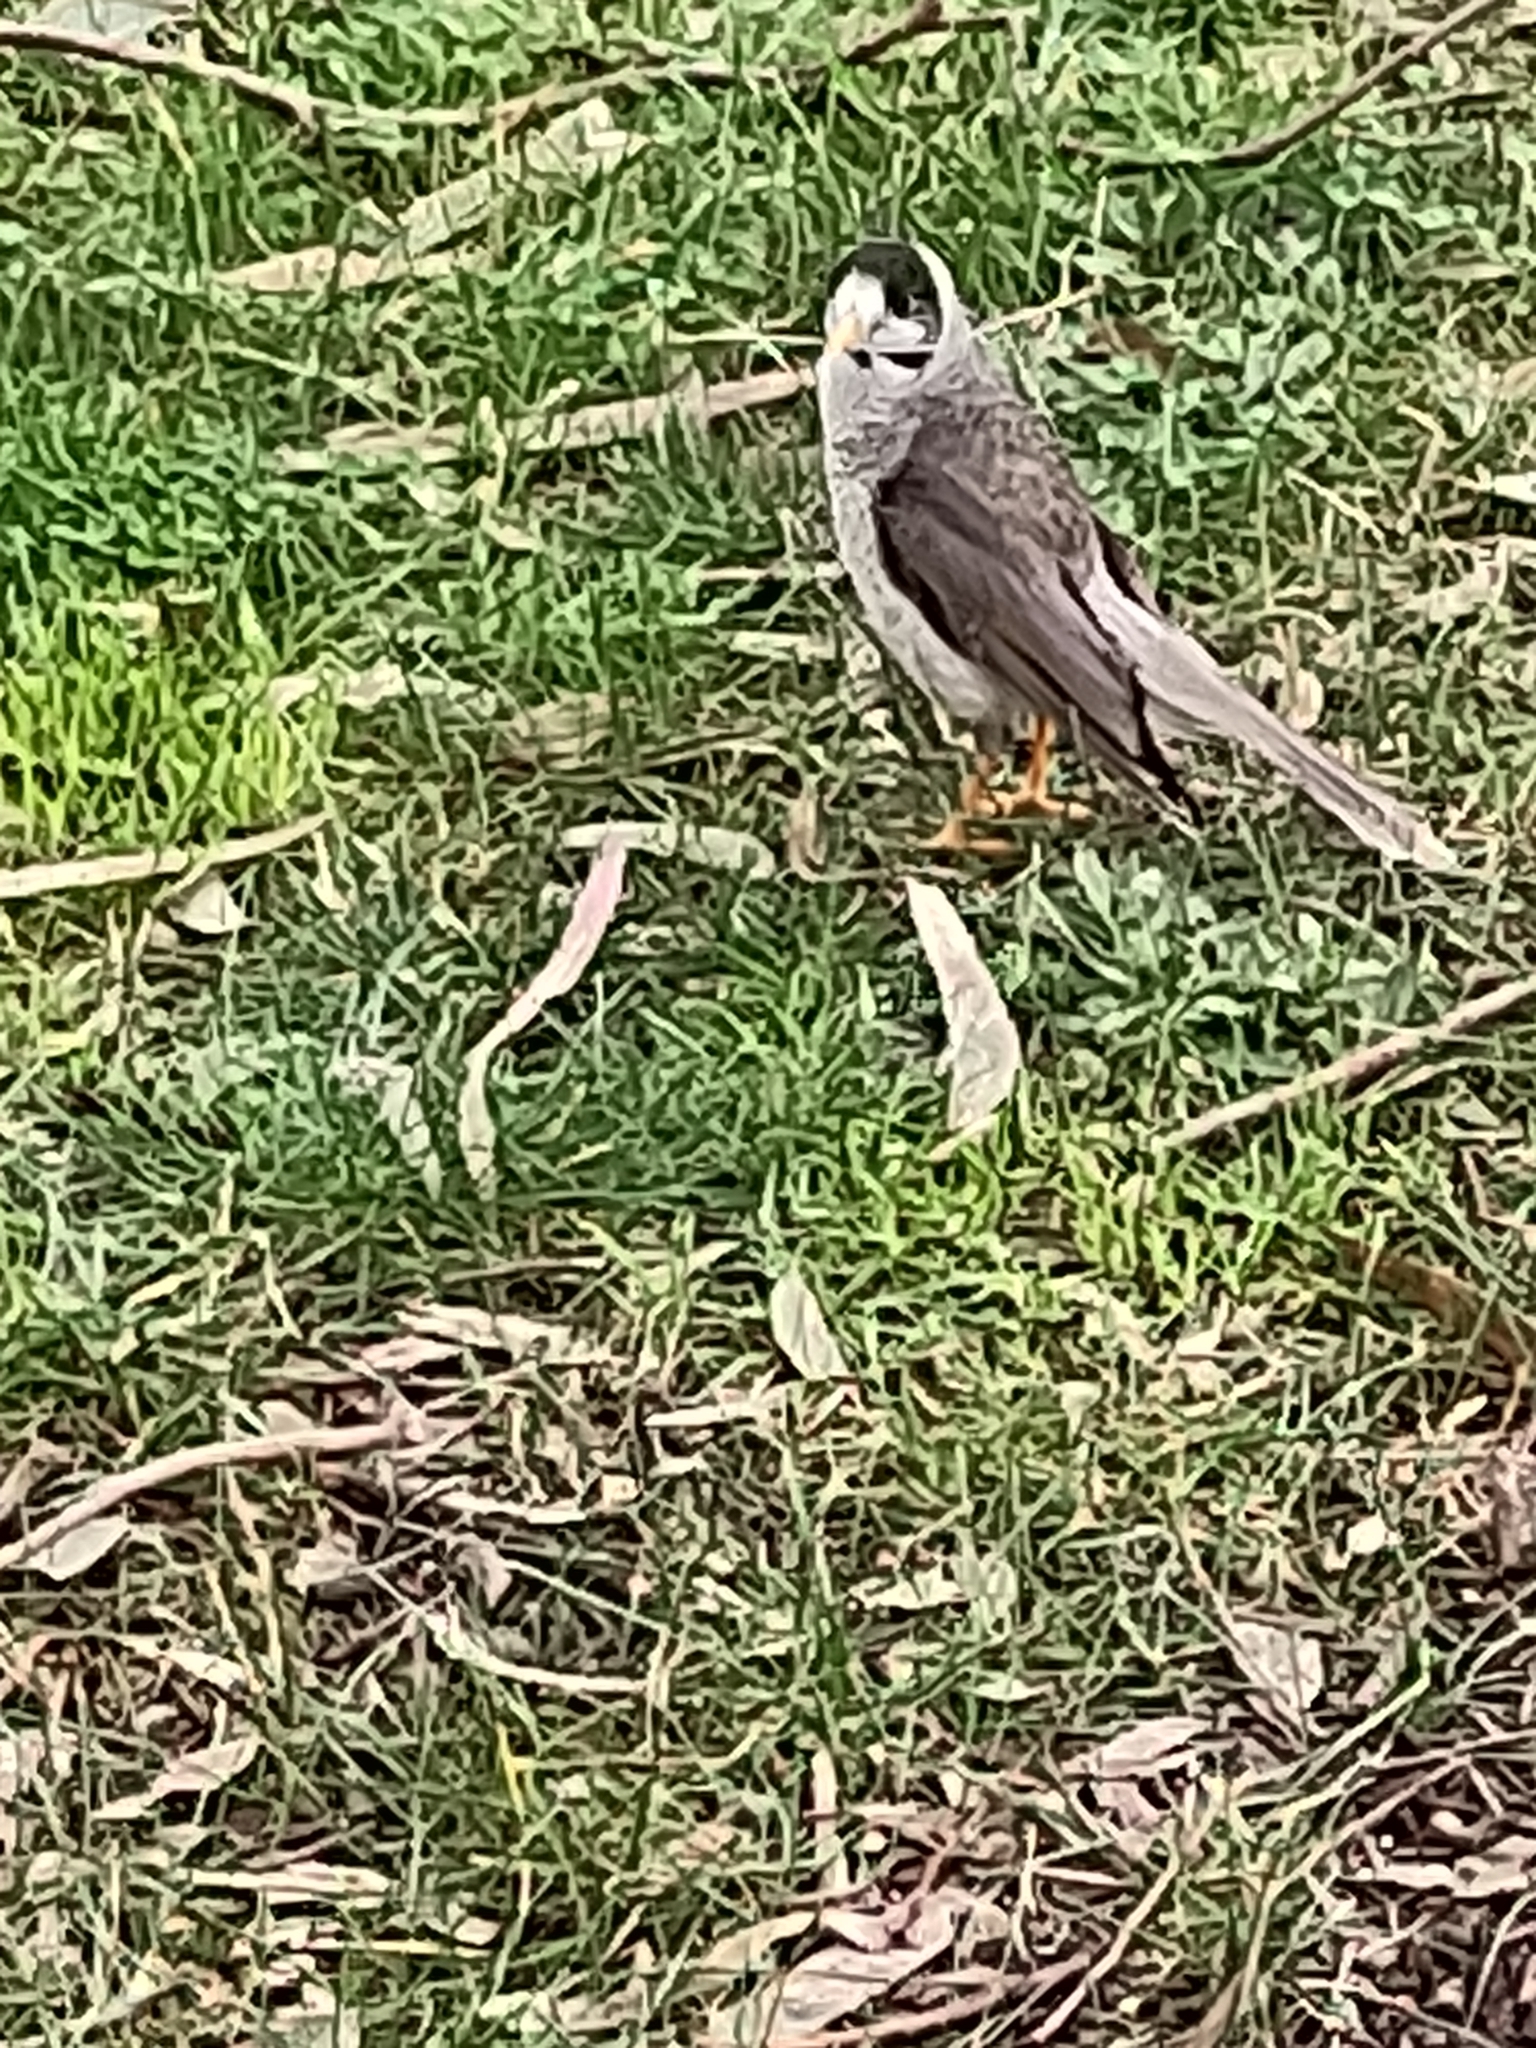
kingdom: Animalia
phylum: Chordata
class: Aves
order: Passeriformes
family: Meliphagidae
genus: Manorina
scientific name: Manorina melanocephala
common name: Noisy miner
